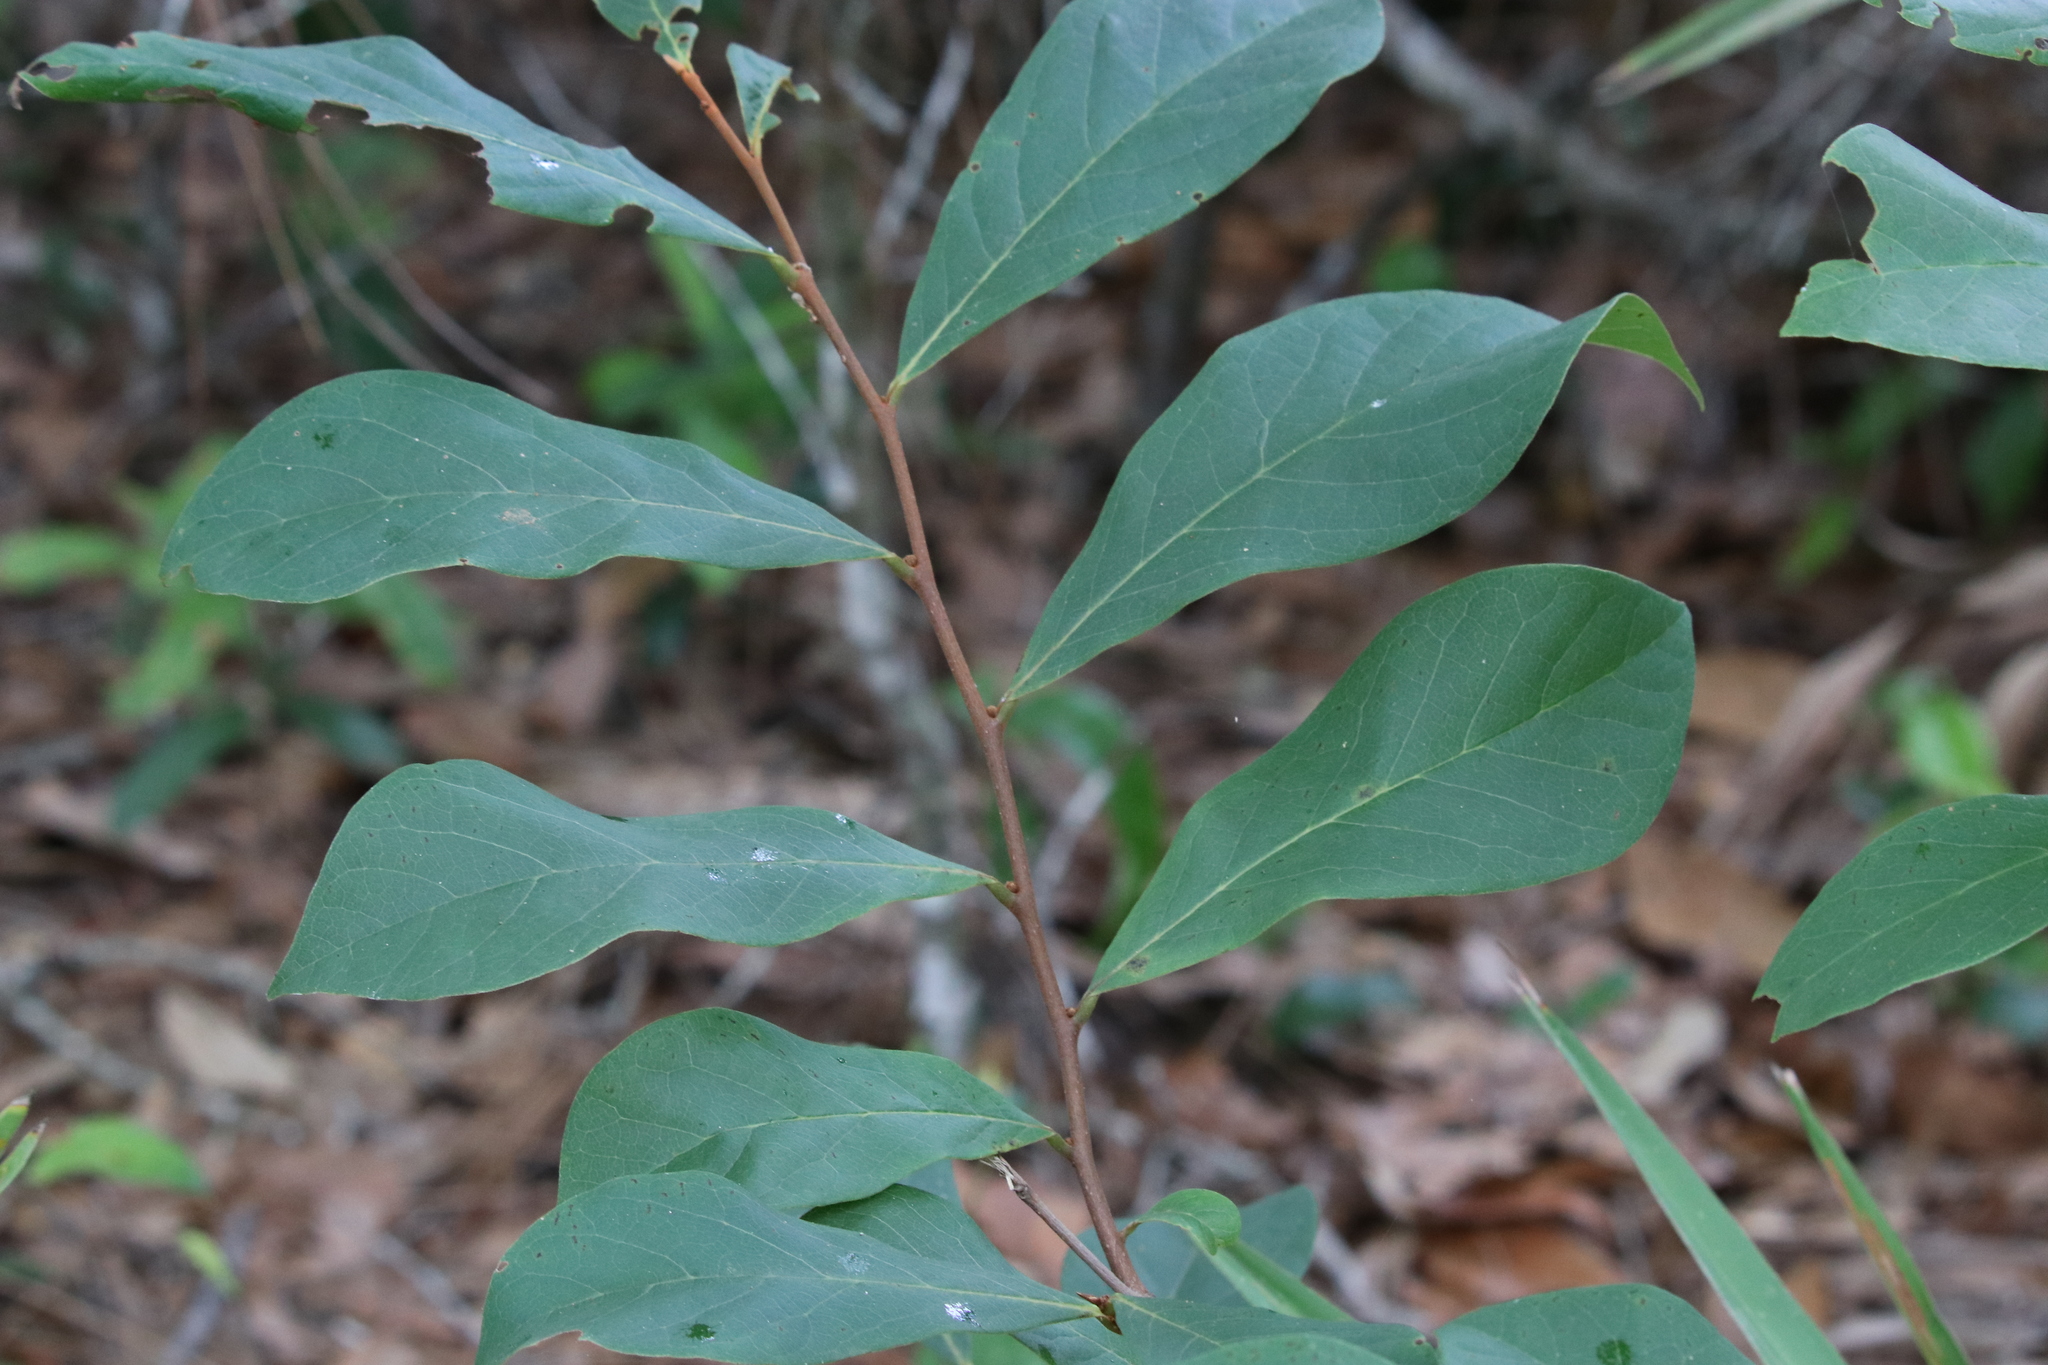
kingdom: Plantae
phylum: Tracheophyta
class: Magnoliopsida
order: Magnoliales
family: Annonaceae
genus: Asimina
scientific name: Asimina parviflora
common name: Dwarf pawpaw
